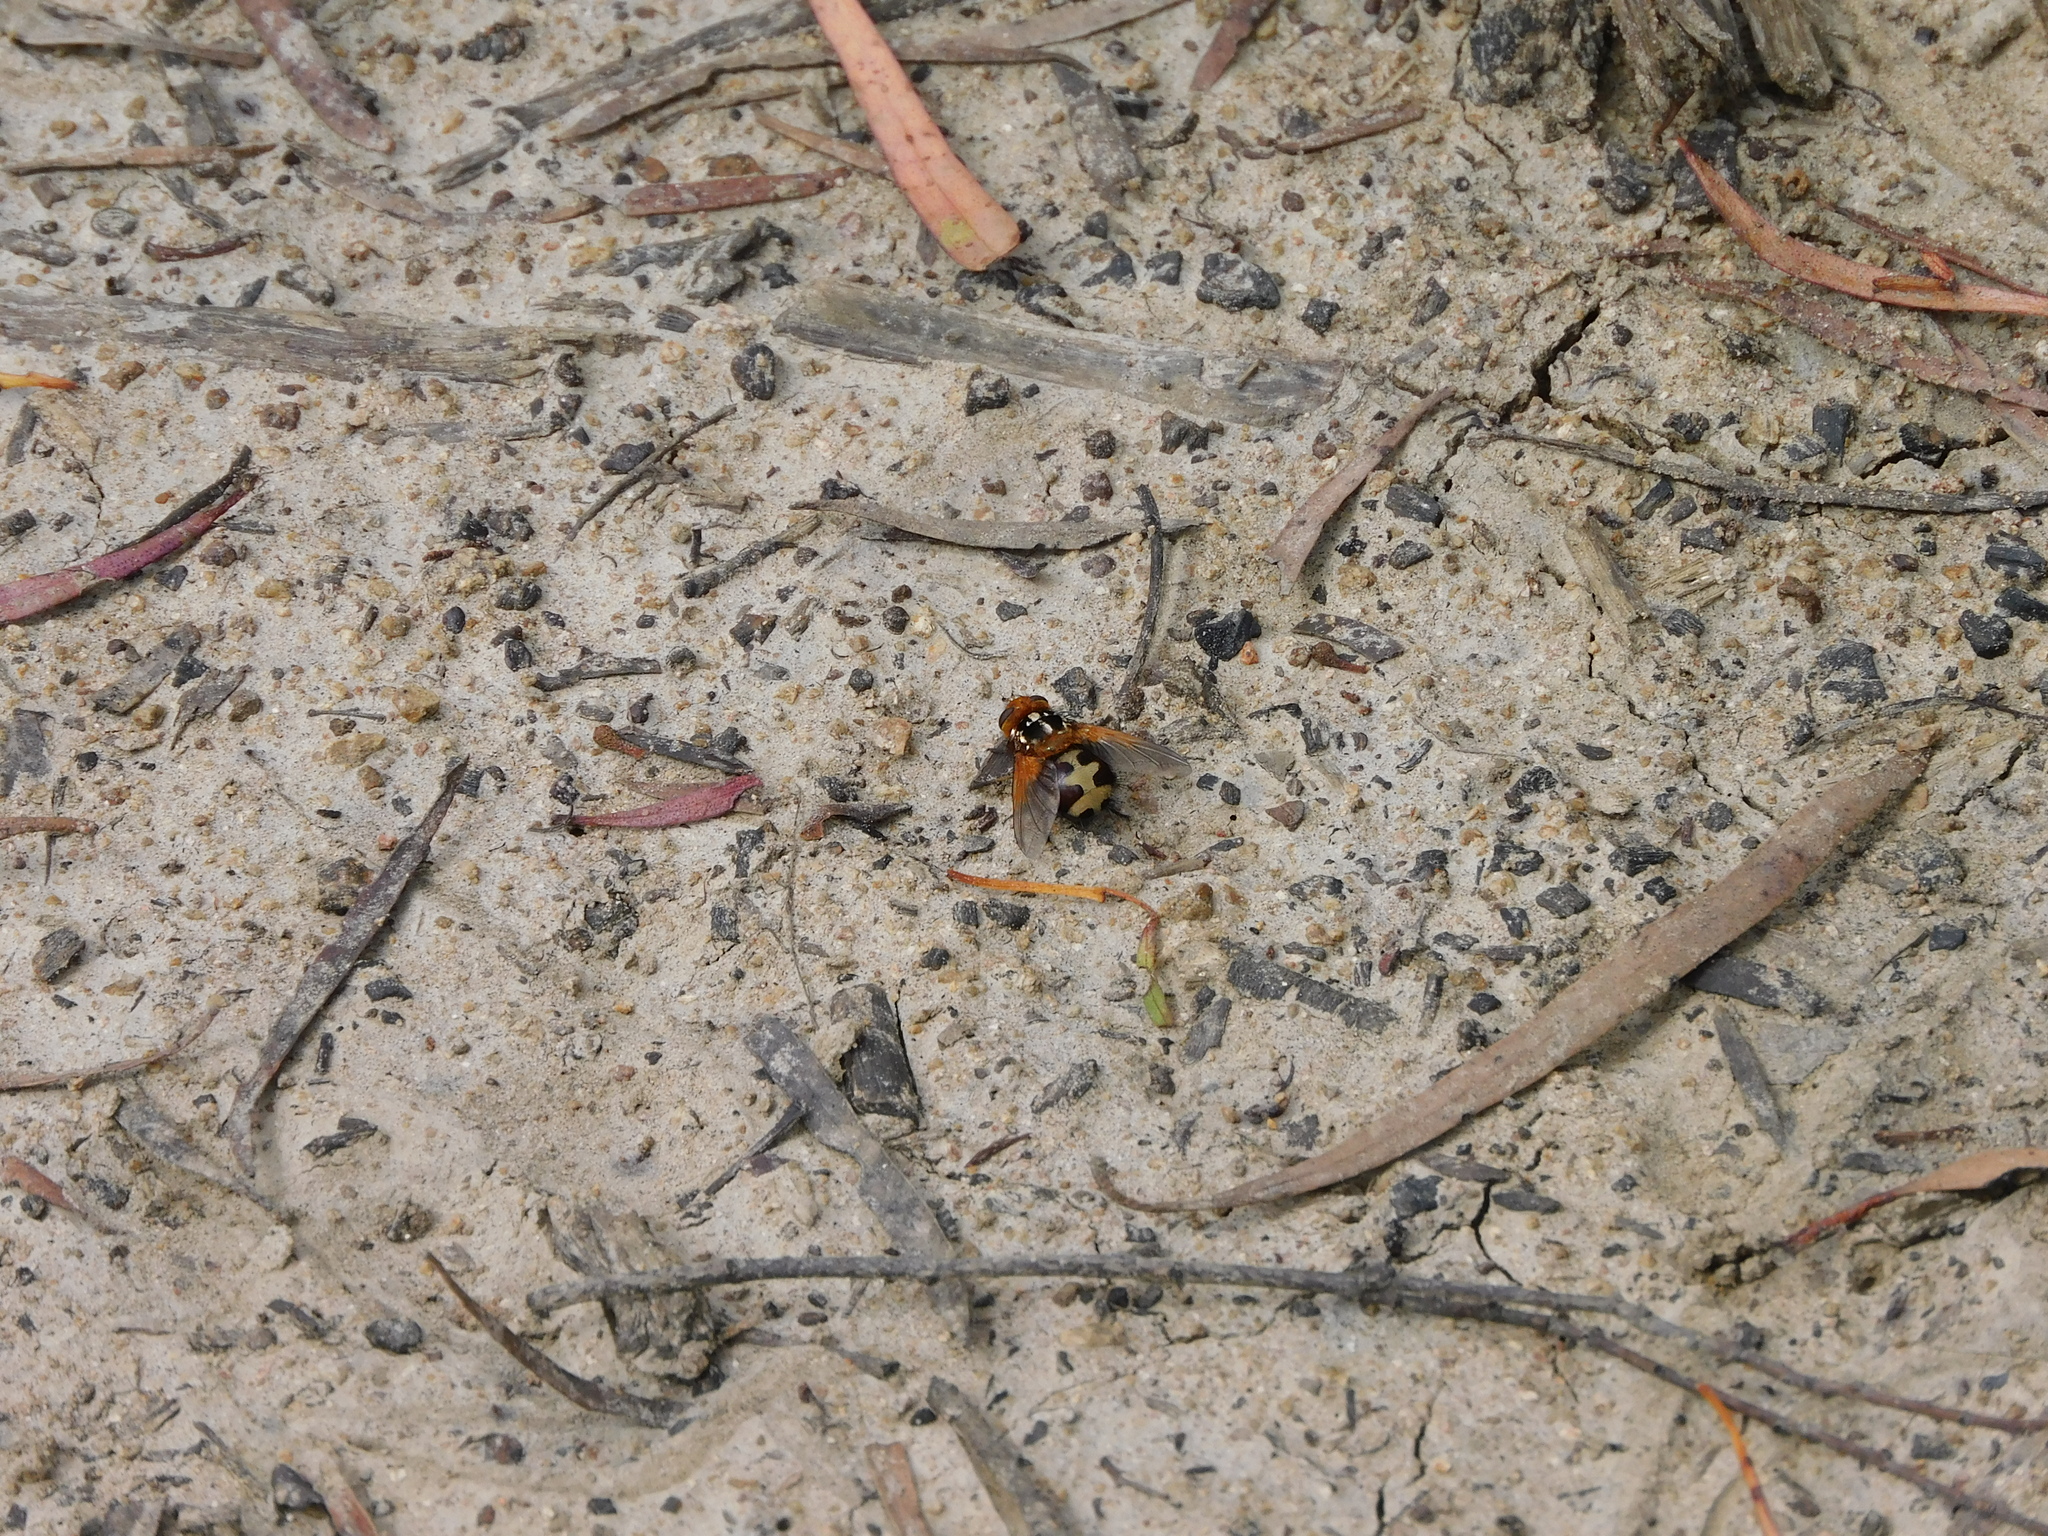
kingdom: Animalia
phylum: Arthropoda
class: Insecta
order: Diptera
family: Tachinidae
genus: Microtropesa
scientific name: Microtropesa nigricornis
